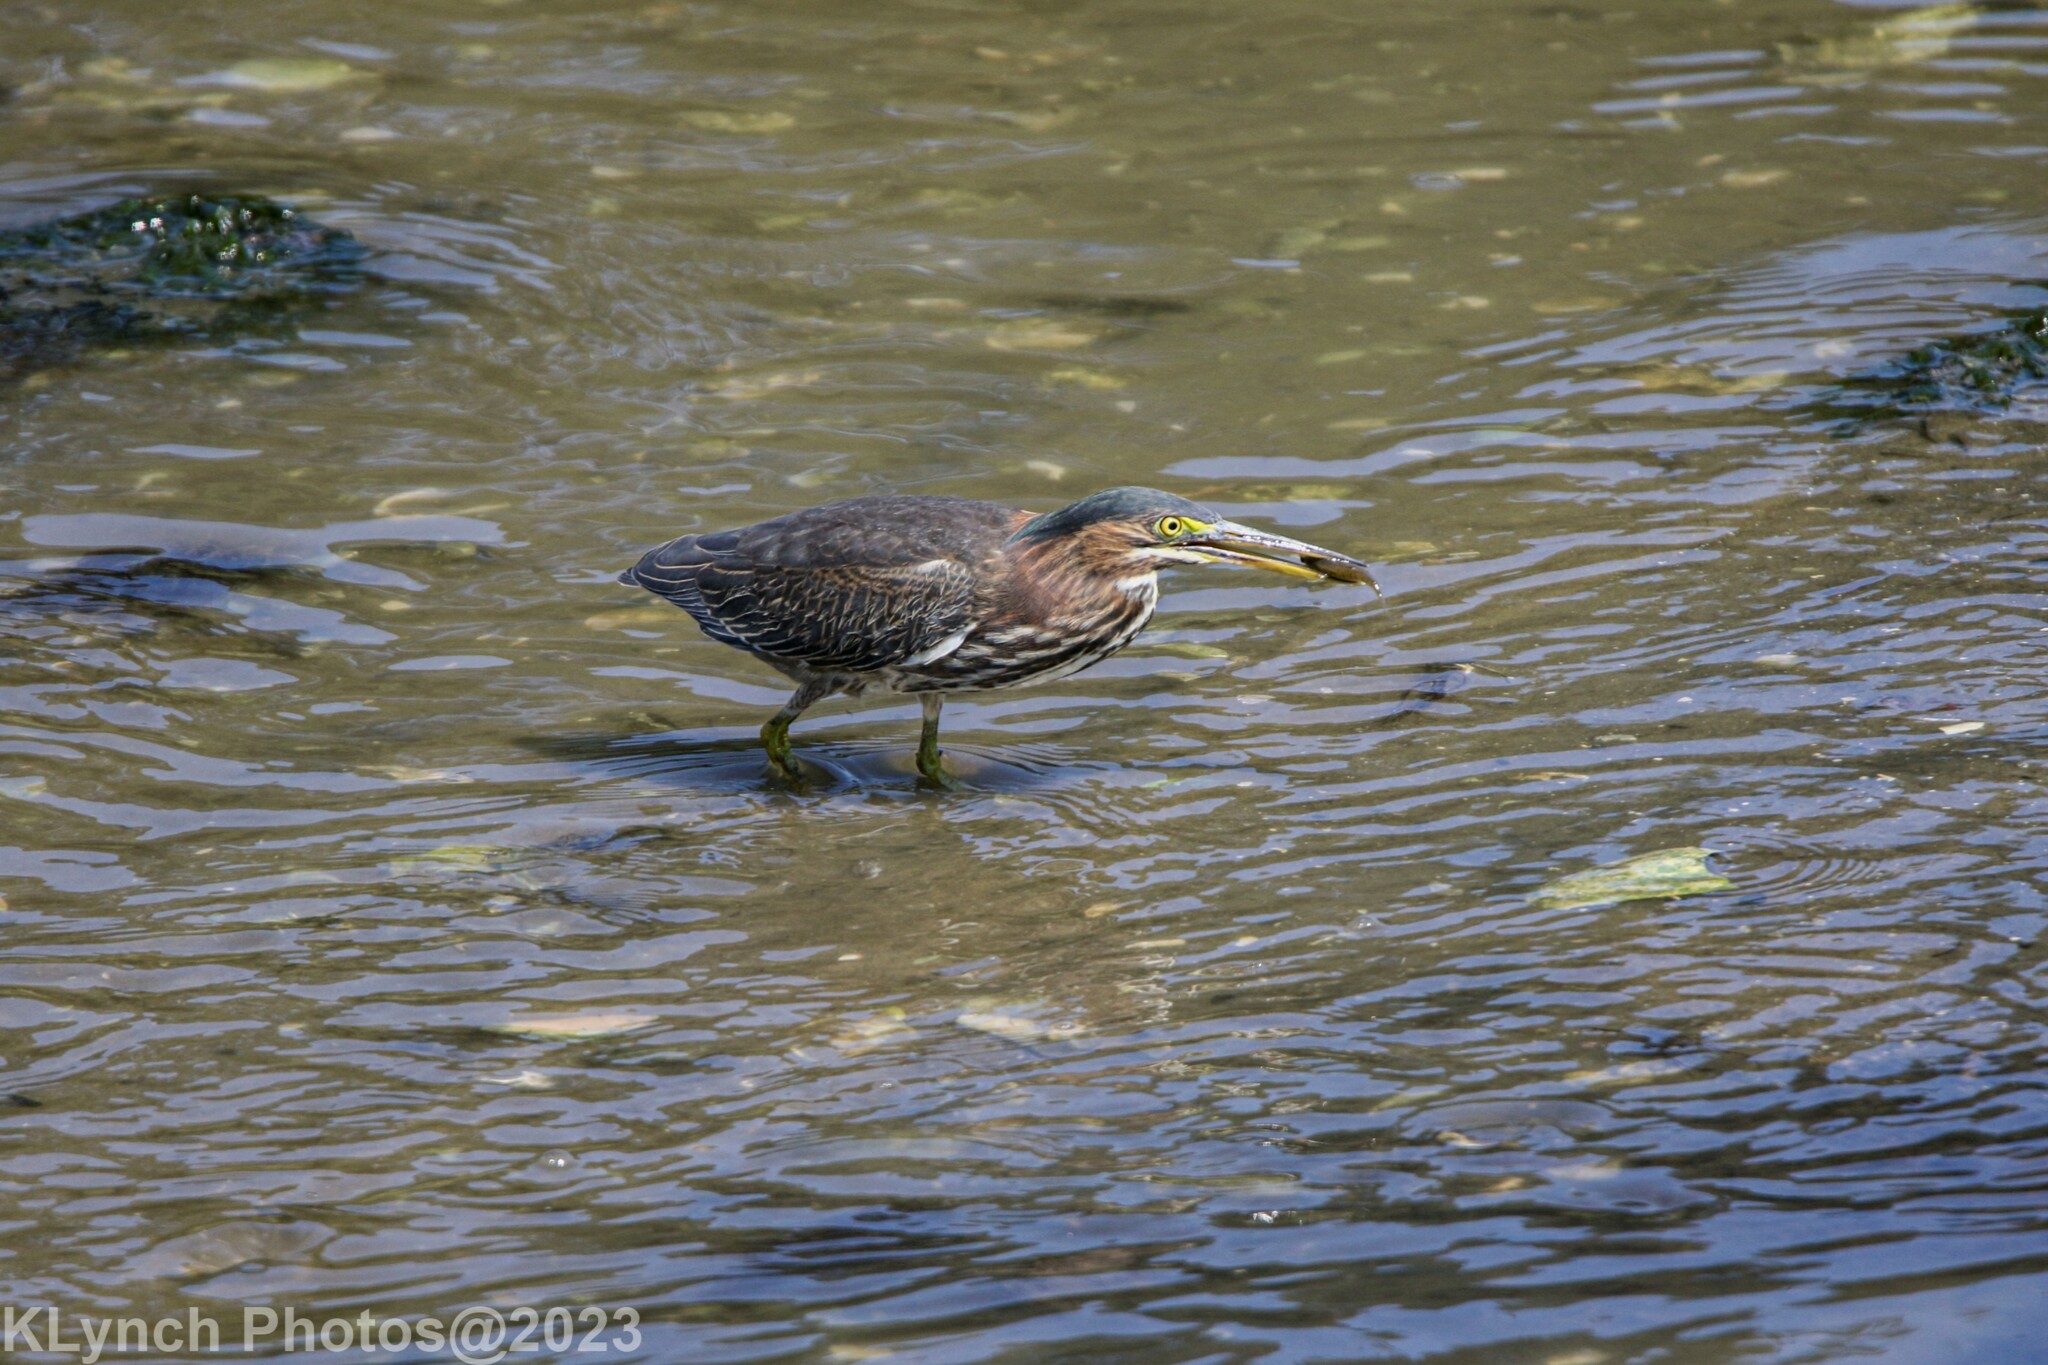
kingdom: Animalia
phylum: Chordata
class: Aves
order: Pelecaniformes
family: Ardeidae
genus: Butorides
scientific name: Butorides virescens
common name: Green heron
